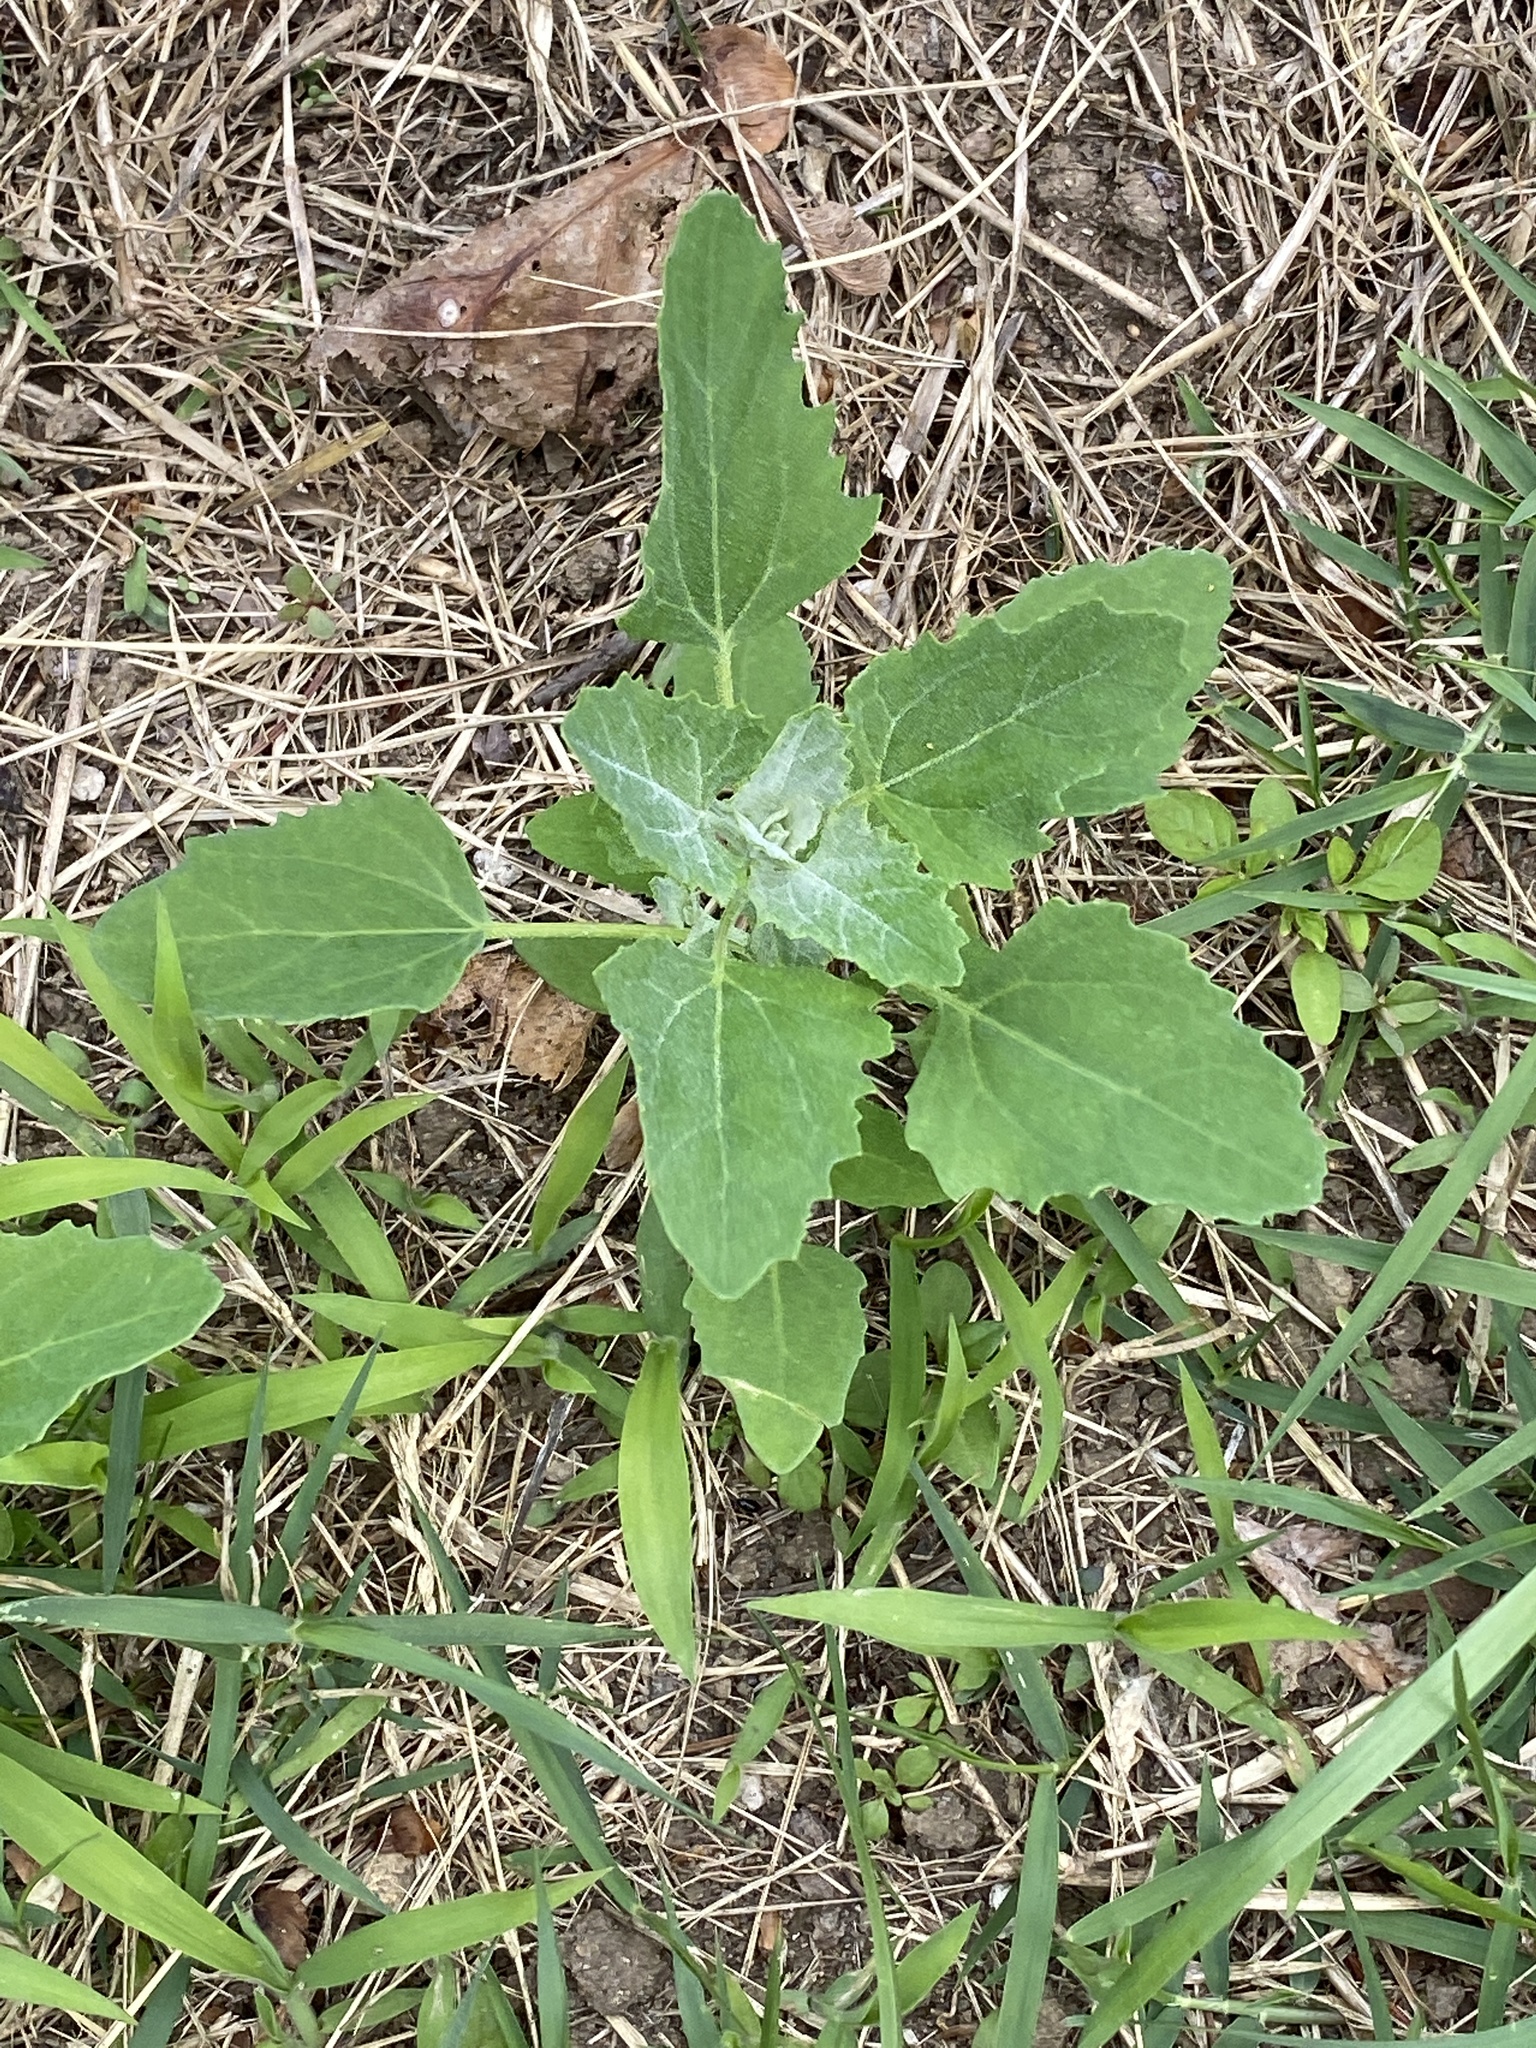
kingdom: Plantae
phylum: Tracheophyta
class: Magnoliopsida
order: Caryophyllales
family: Amaranthaceae
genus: Chenopodium
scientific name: Chenopodium album
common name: Fat-hen
